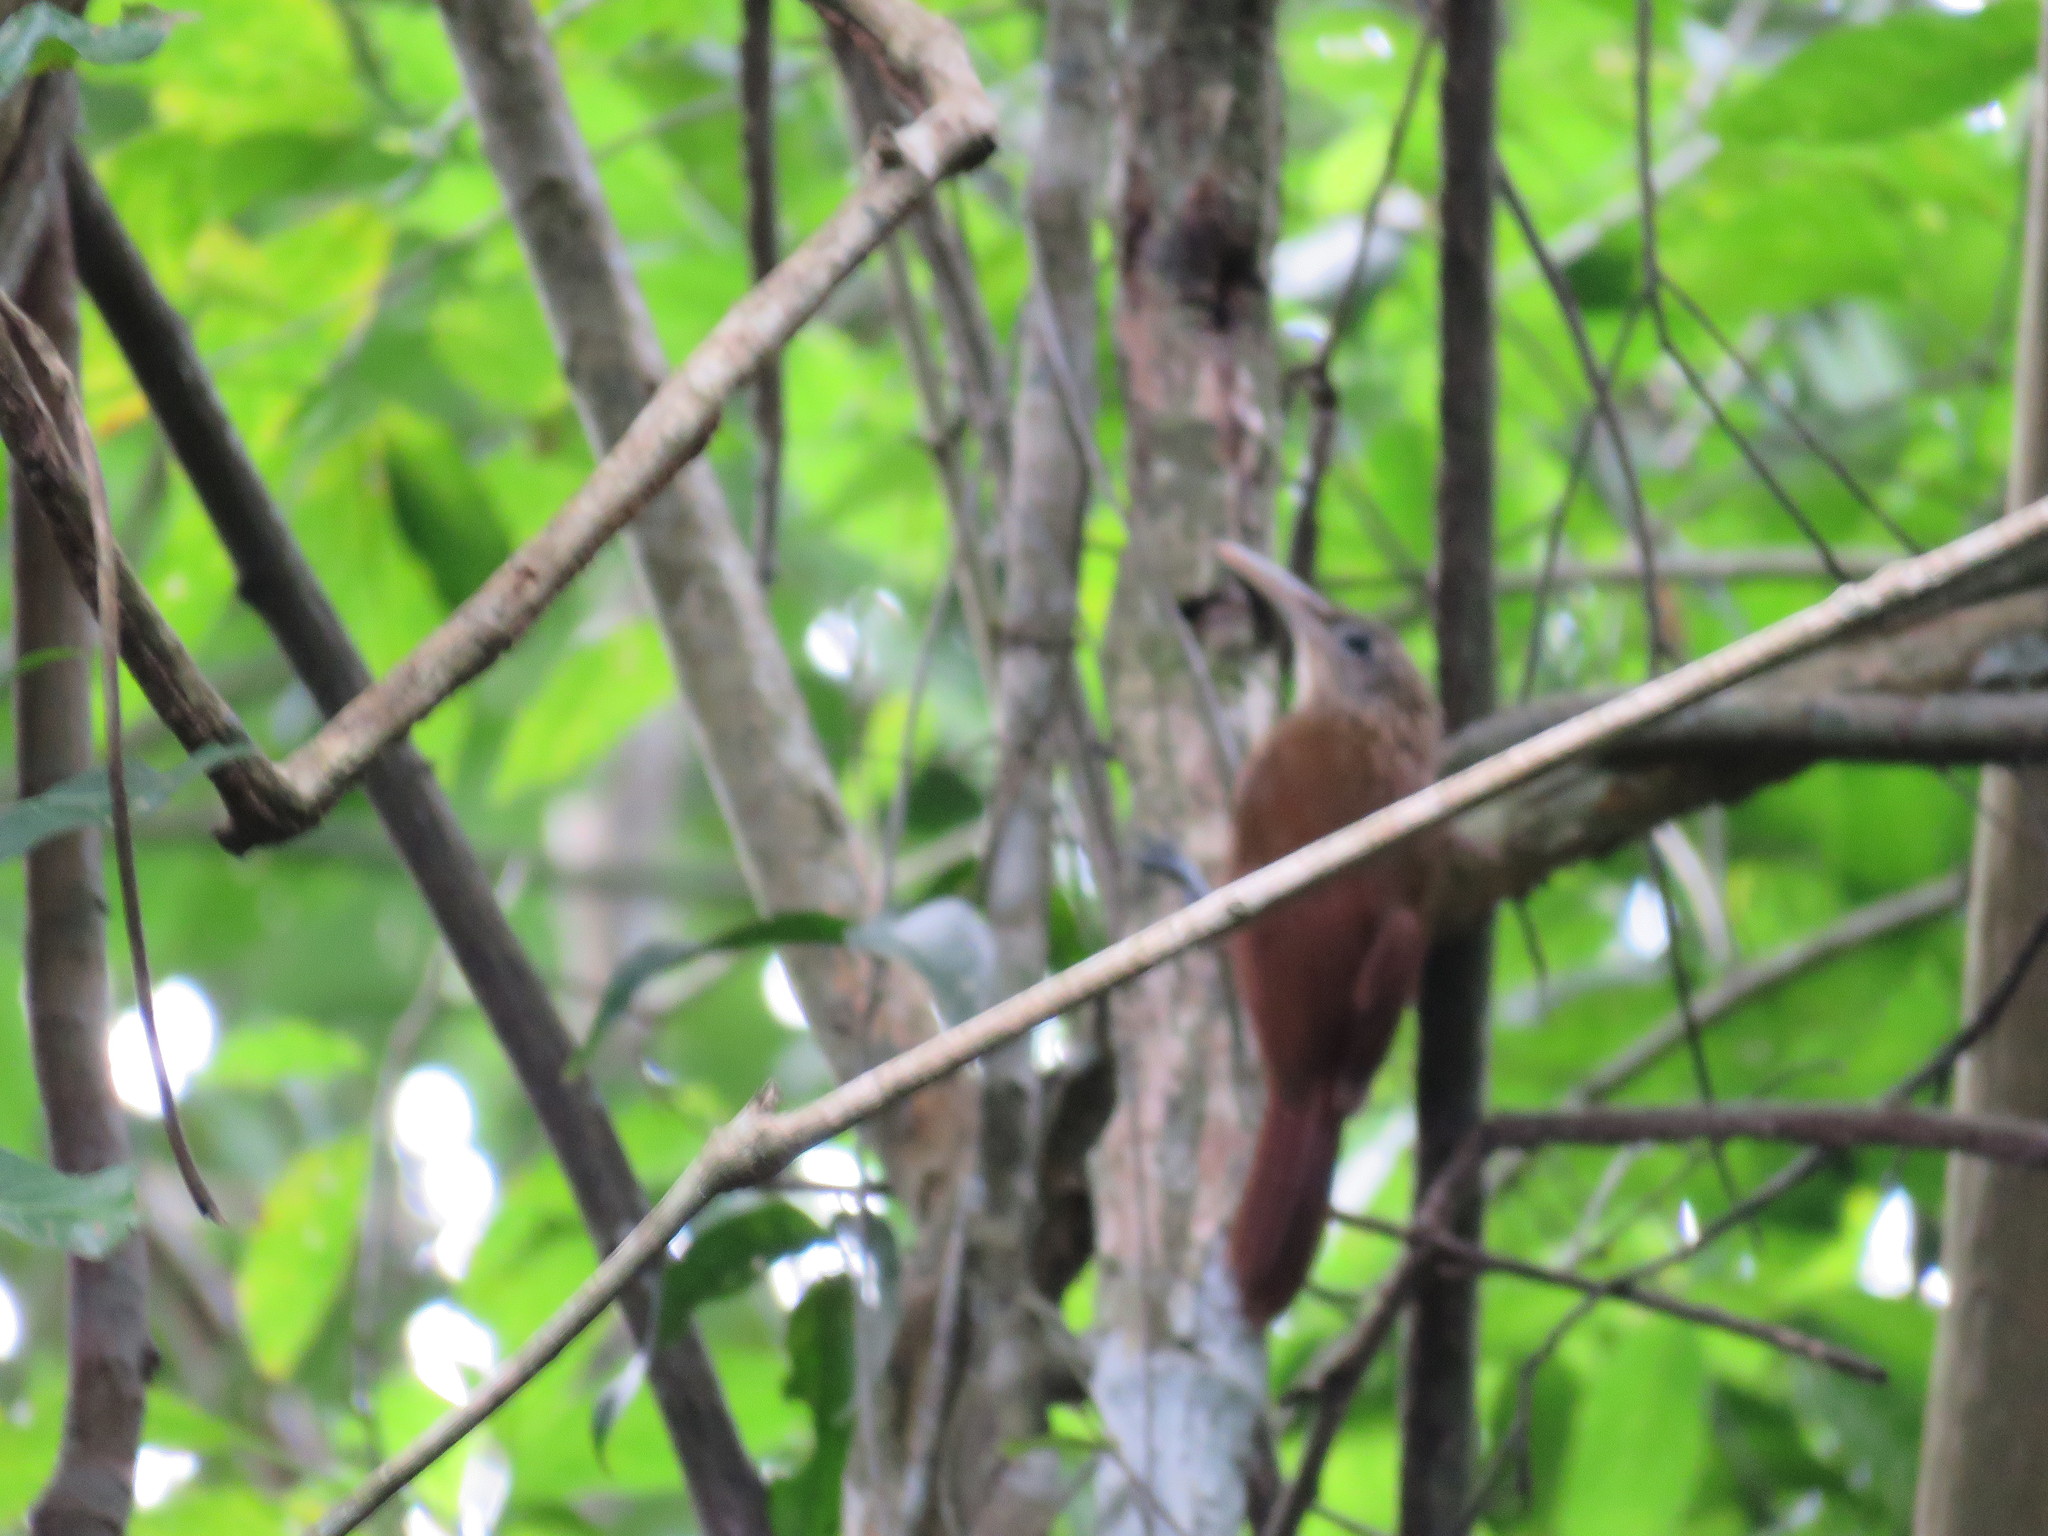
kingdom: Animalia
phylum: Chordata
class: Aves
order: Passeriformes
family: Furnariidae
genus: Xiphorhynchus
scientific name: Xiphorhynchus guttatus
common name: Buff-throated woodcreeper
